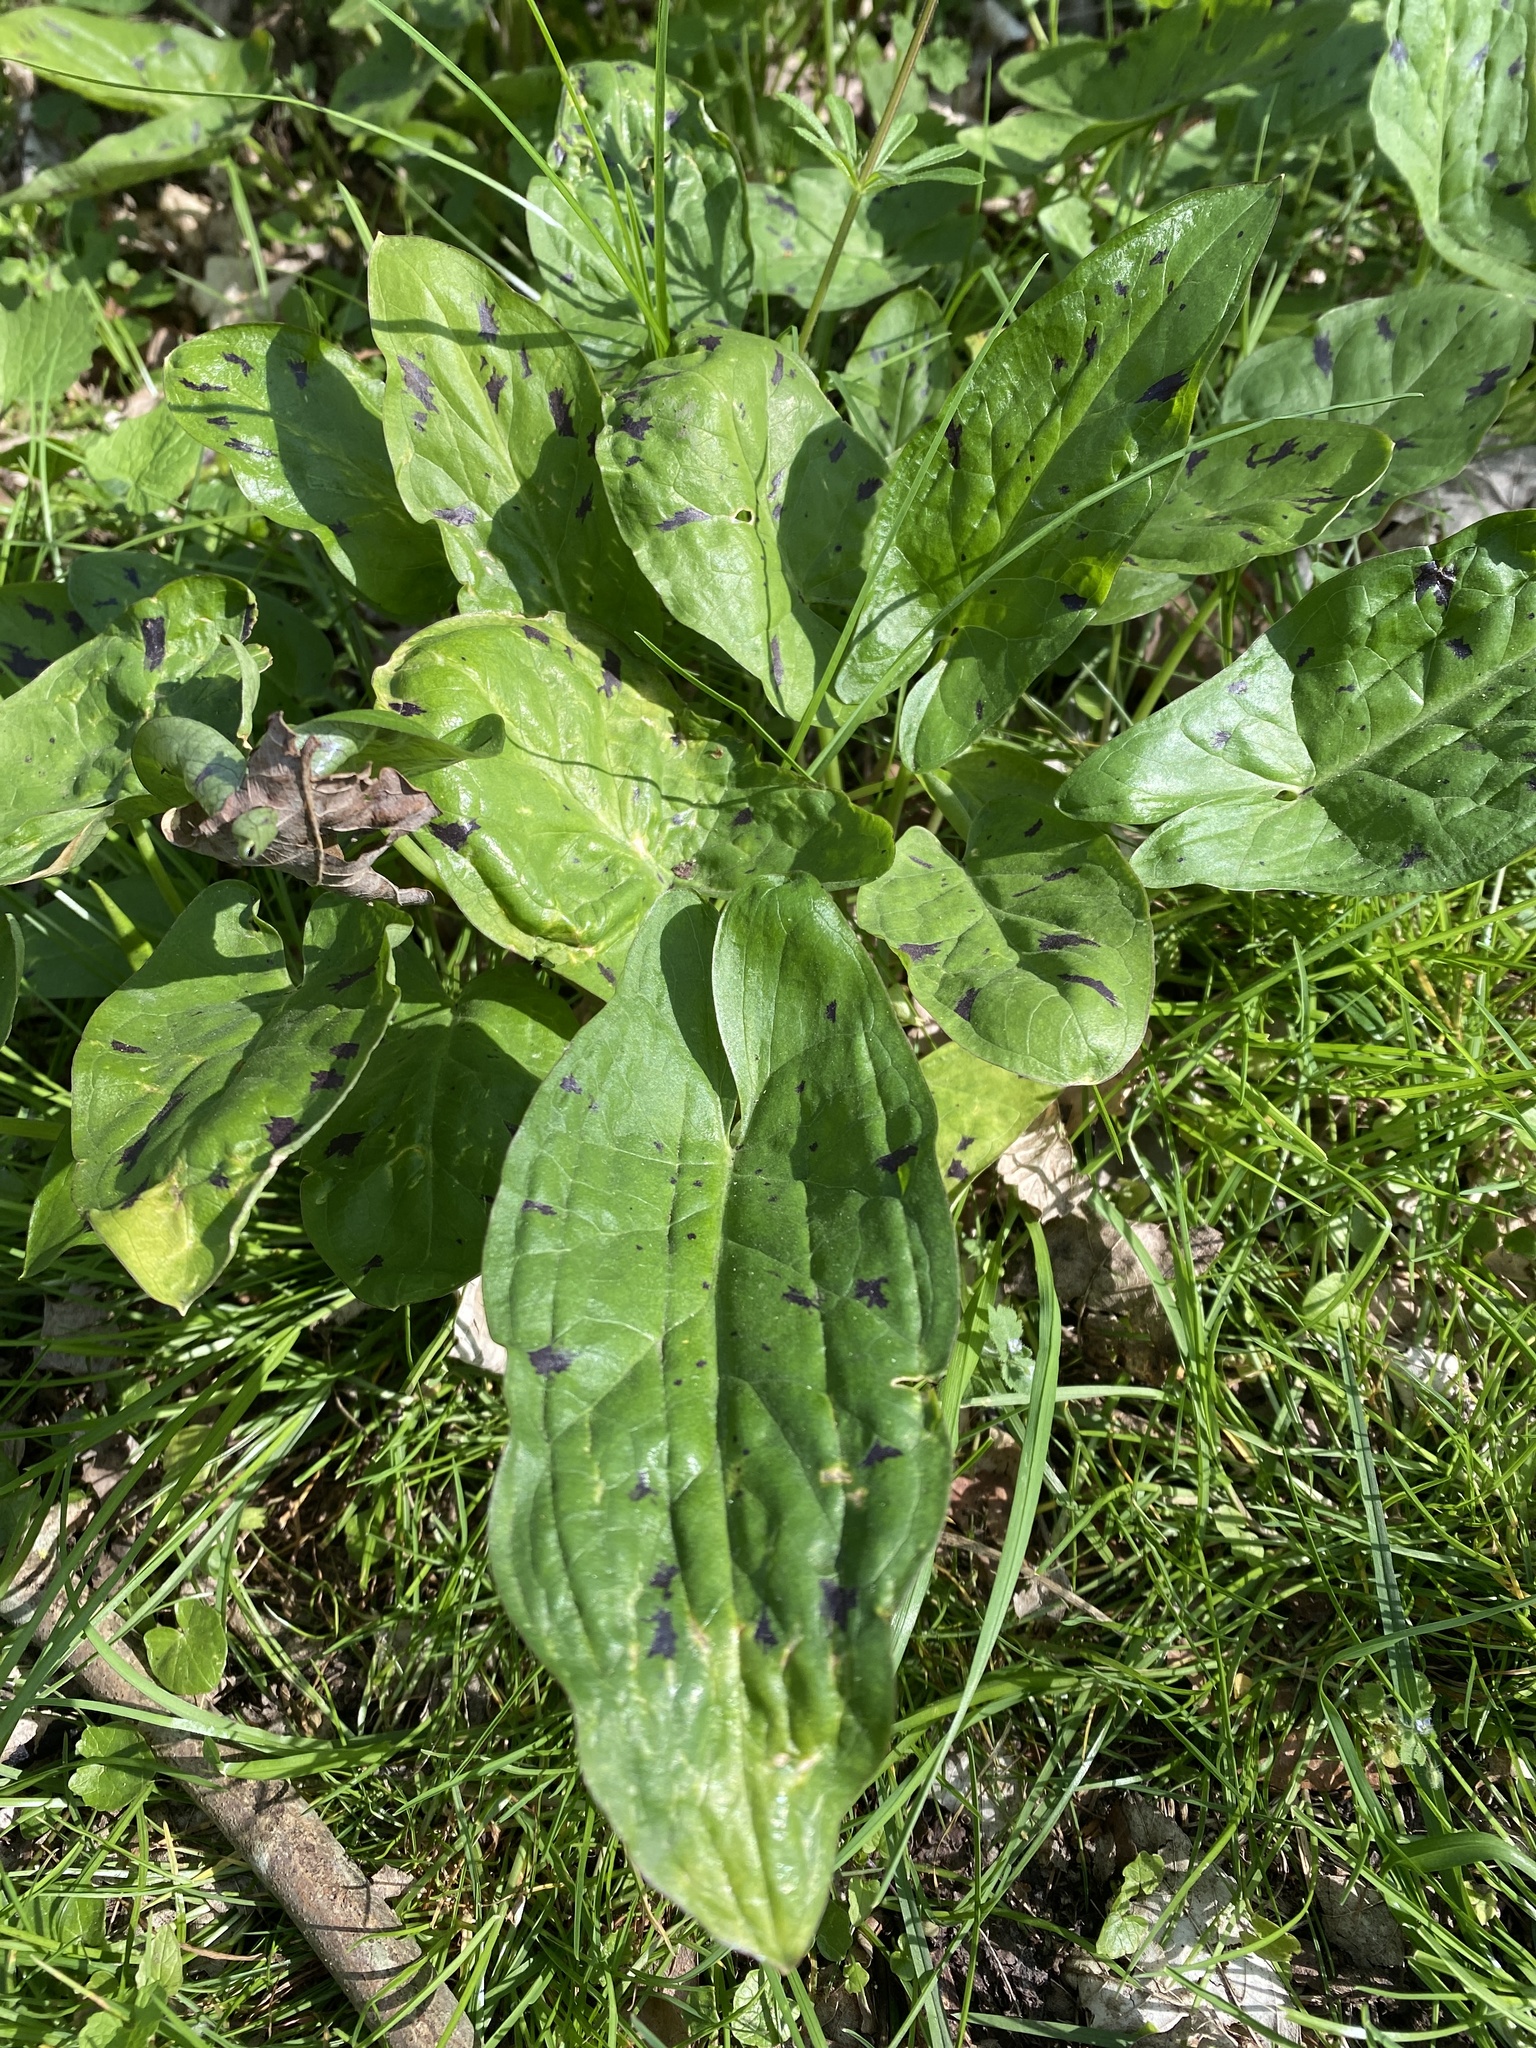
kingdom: Plantae
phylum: Tracheophyta
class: Liliopsida
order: Alismatales
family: Araceae
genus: Arum
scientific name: Arum maculatum
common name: Lords-and-ladies
